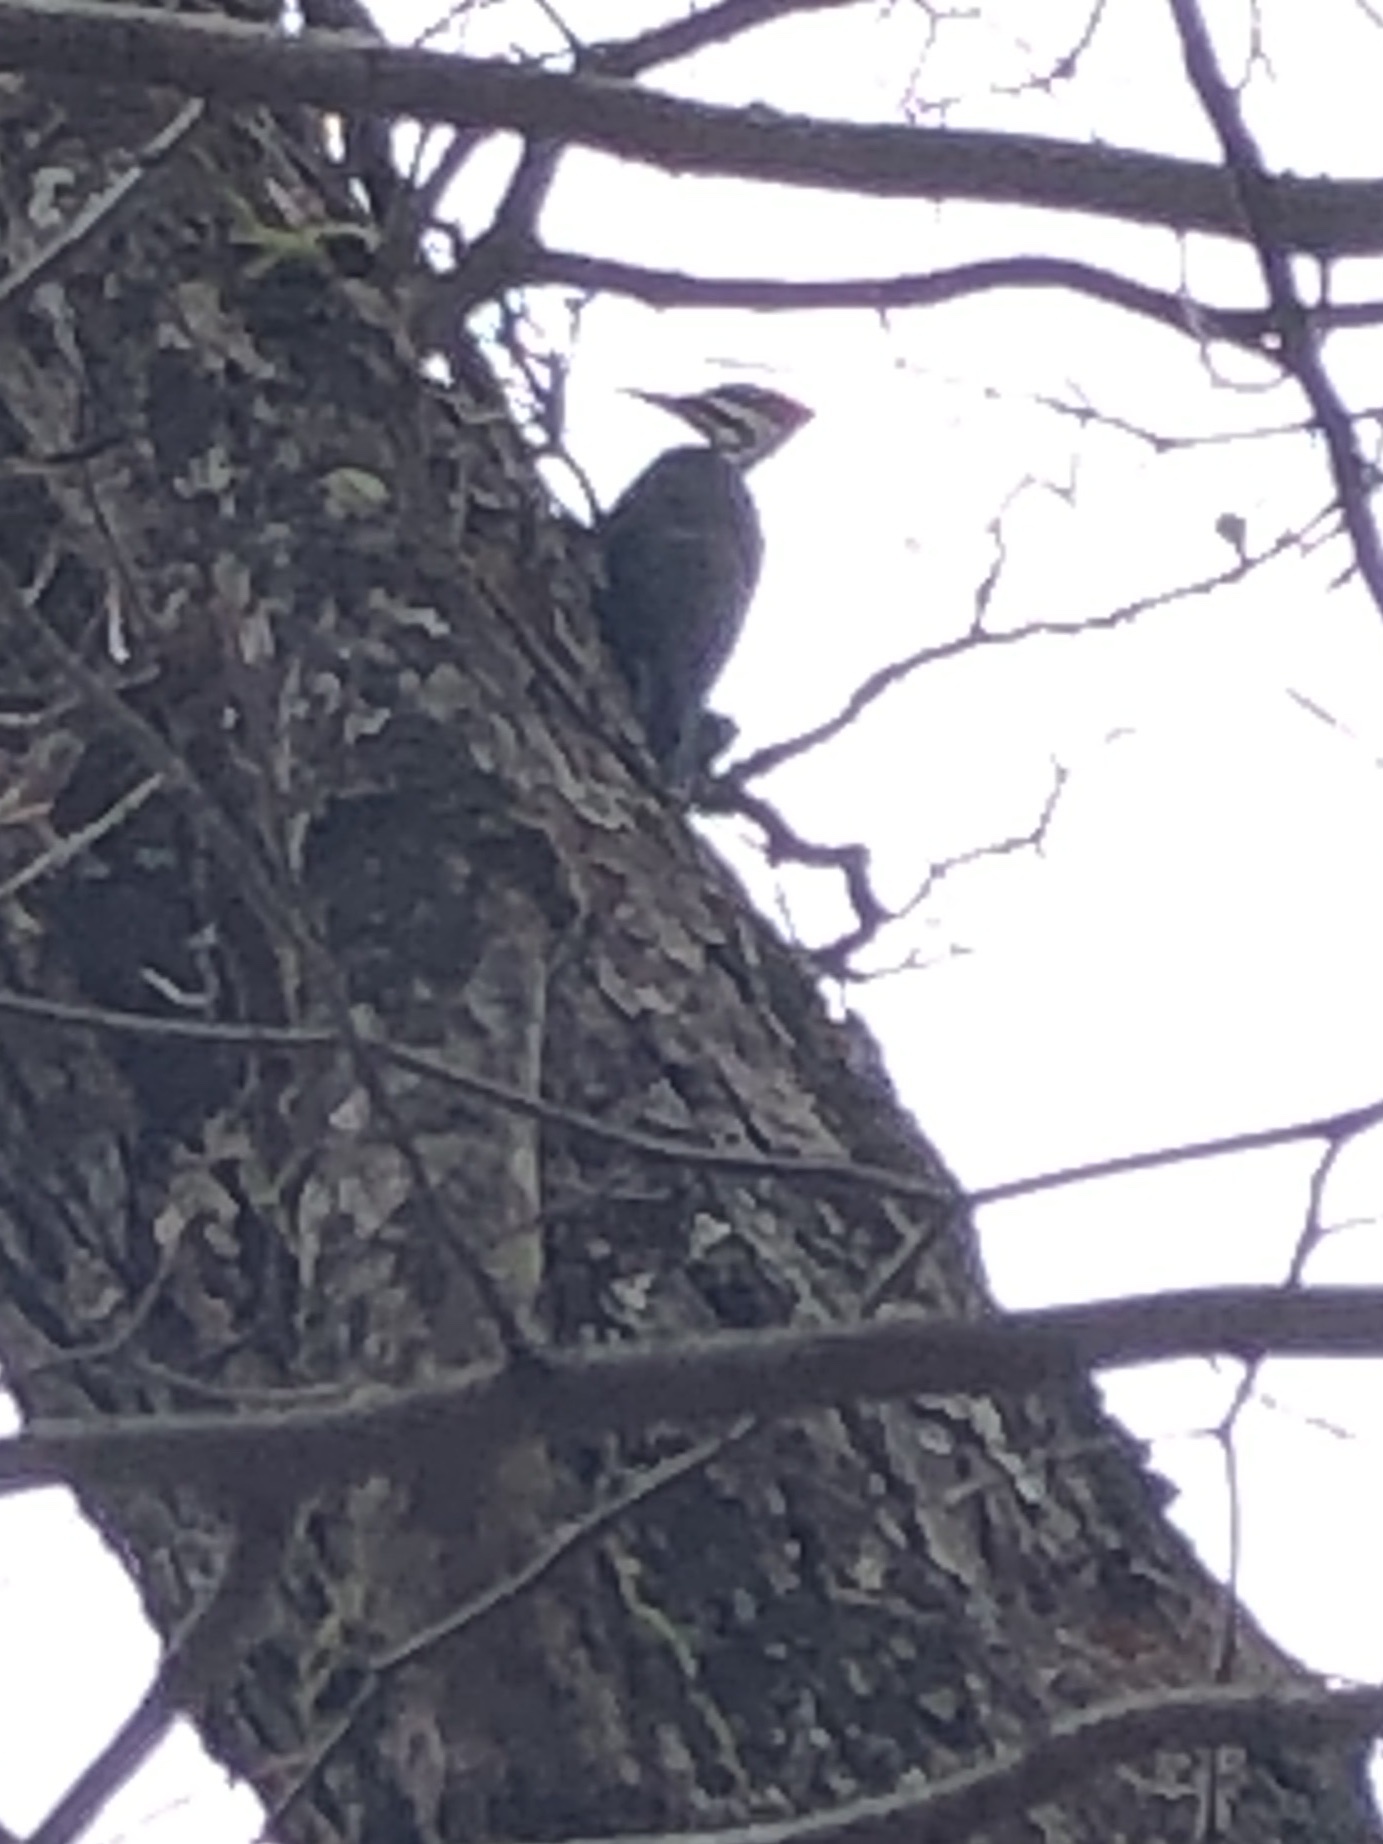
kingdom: Animalia
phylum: Chordata
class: Aves
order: Piciformes
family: Picidae
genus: Dryocopus
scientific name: Dryocopus pileatus
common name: Pileated woodpecker
